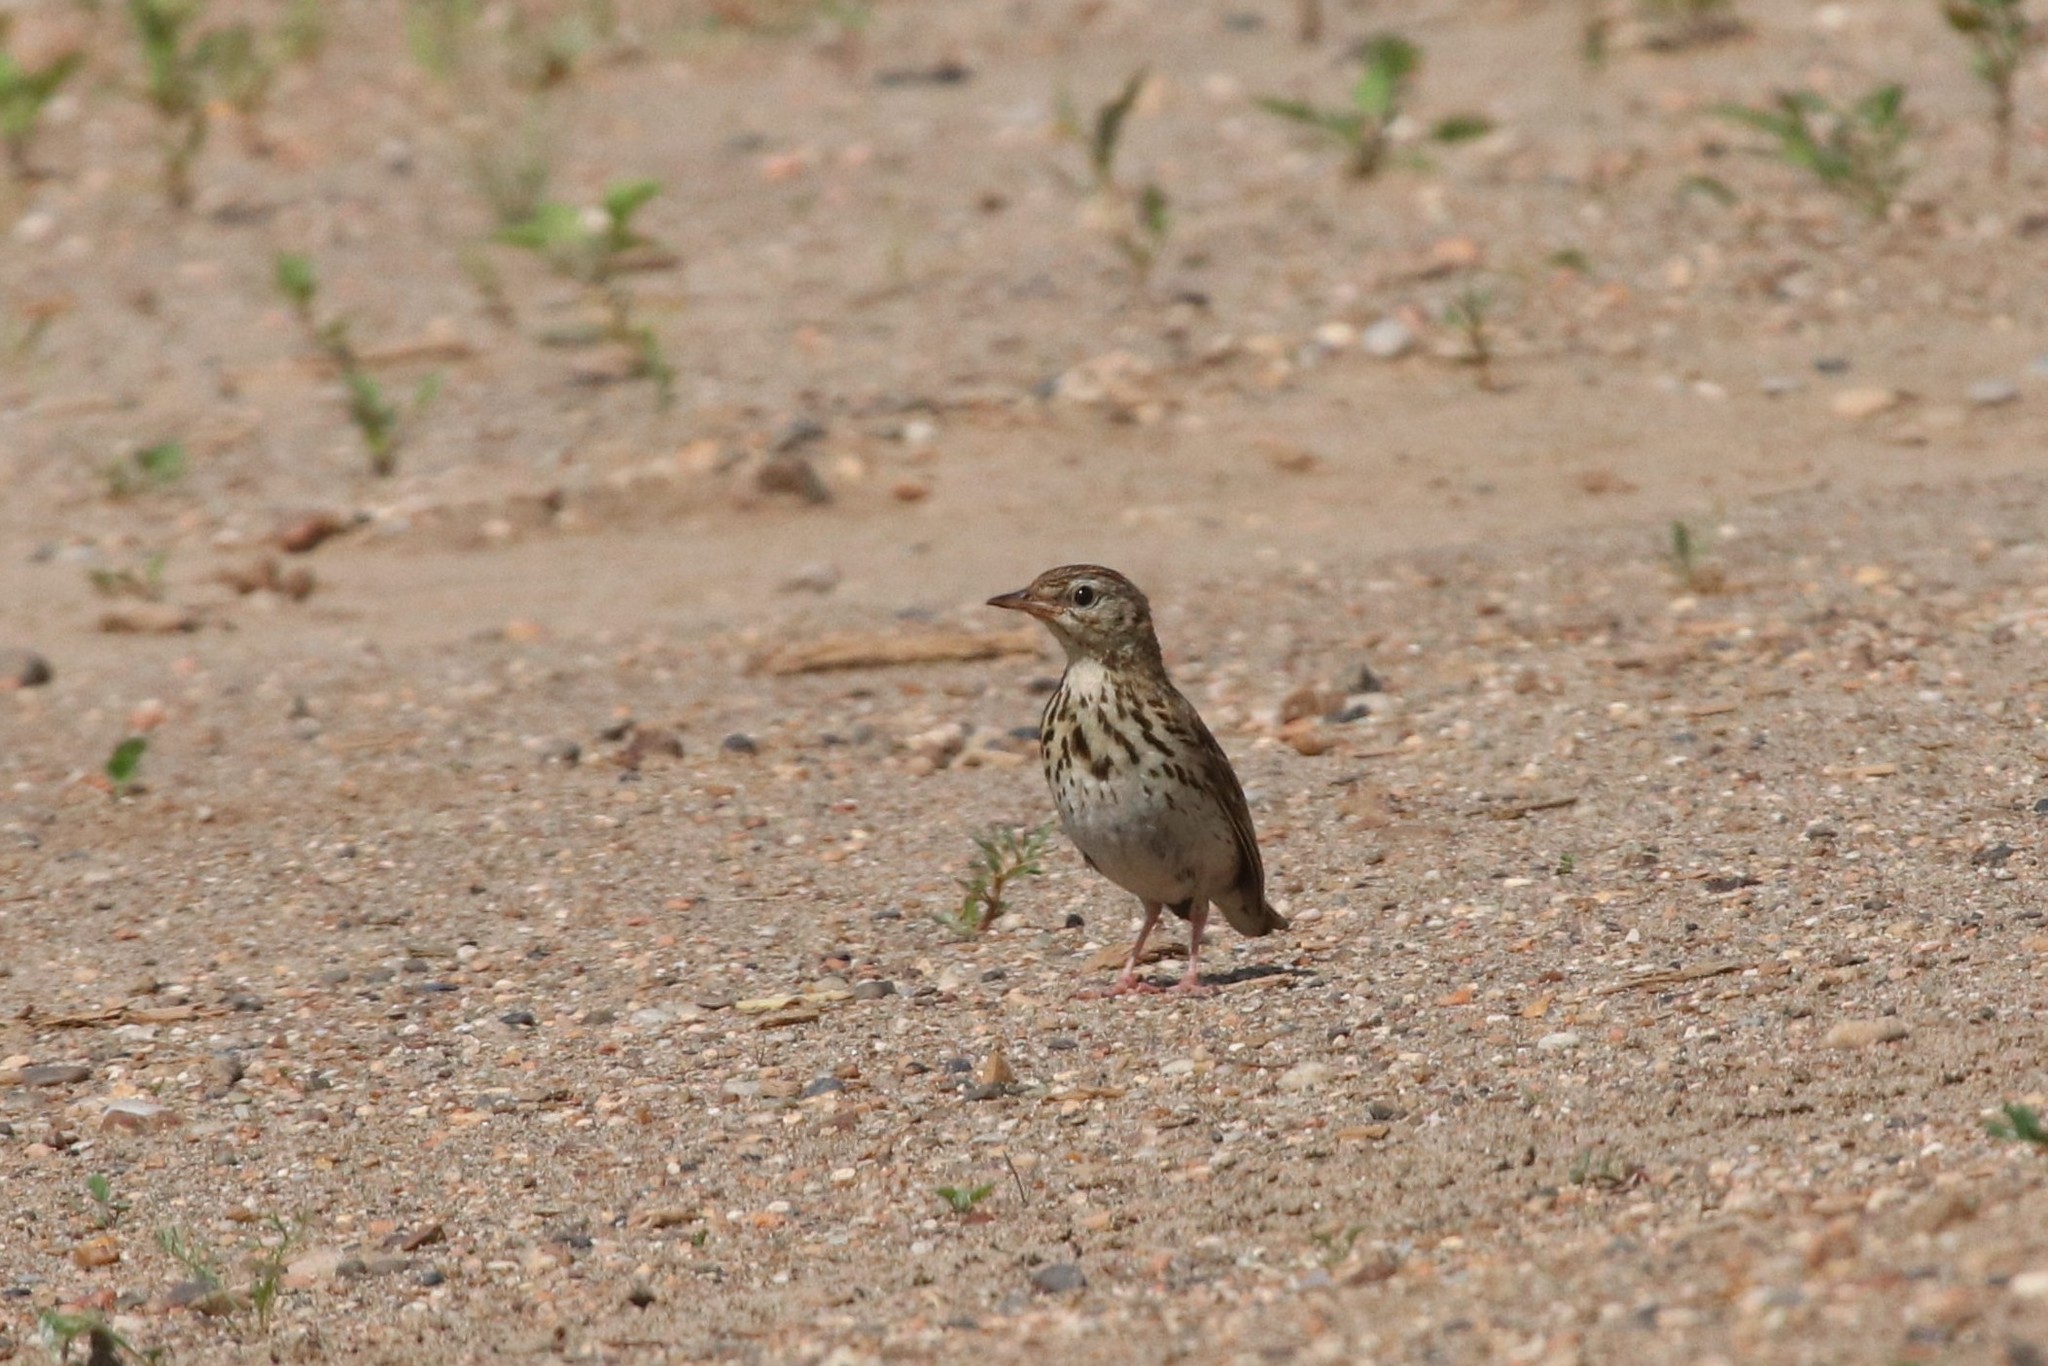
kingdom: Animalia
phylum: Chordata
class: Aves
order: Passeriformes
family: Motacillidae
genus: Anthus
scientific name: Anthus trivialis
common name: Tree pipit
